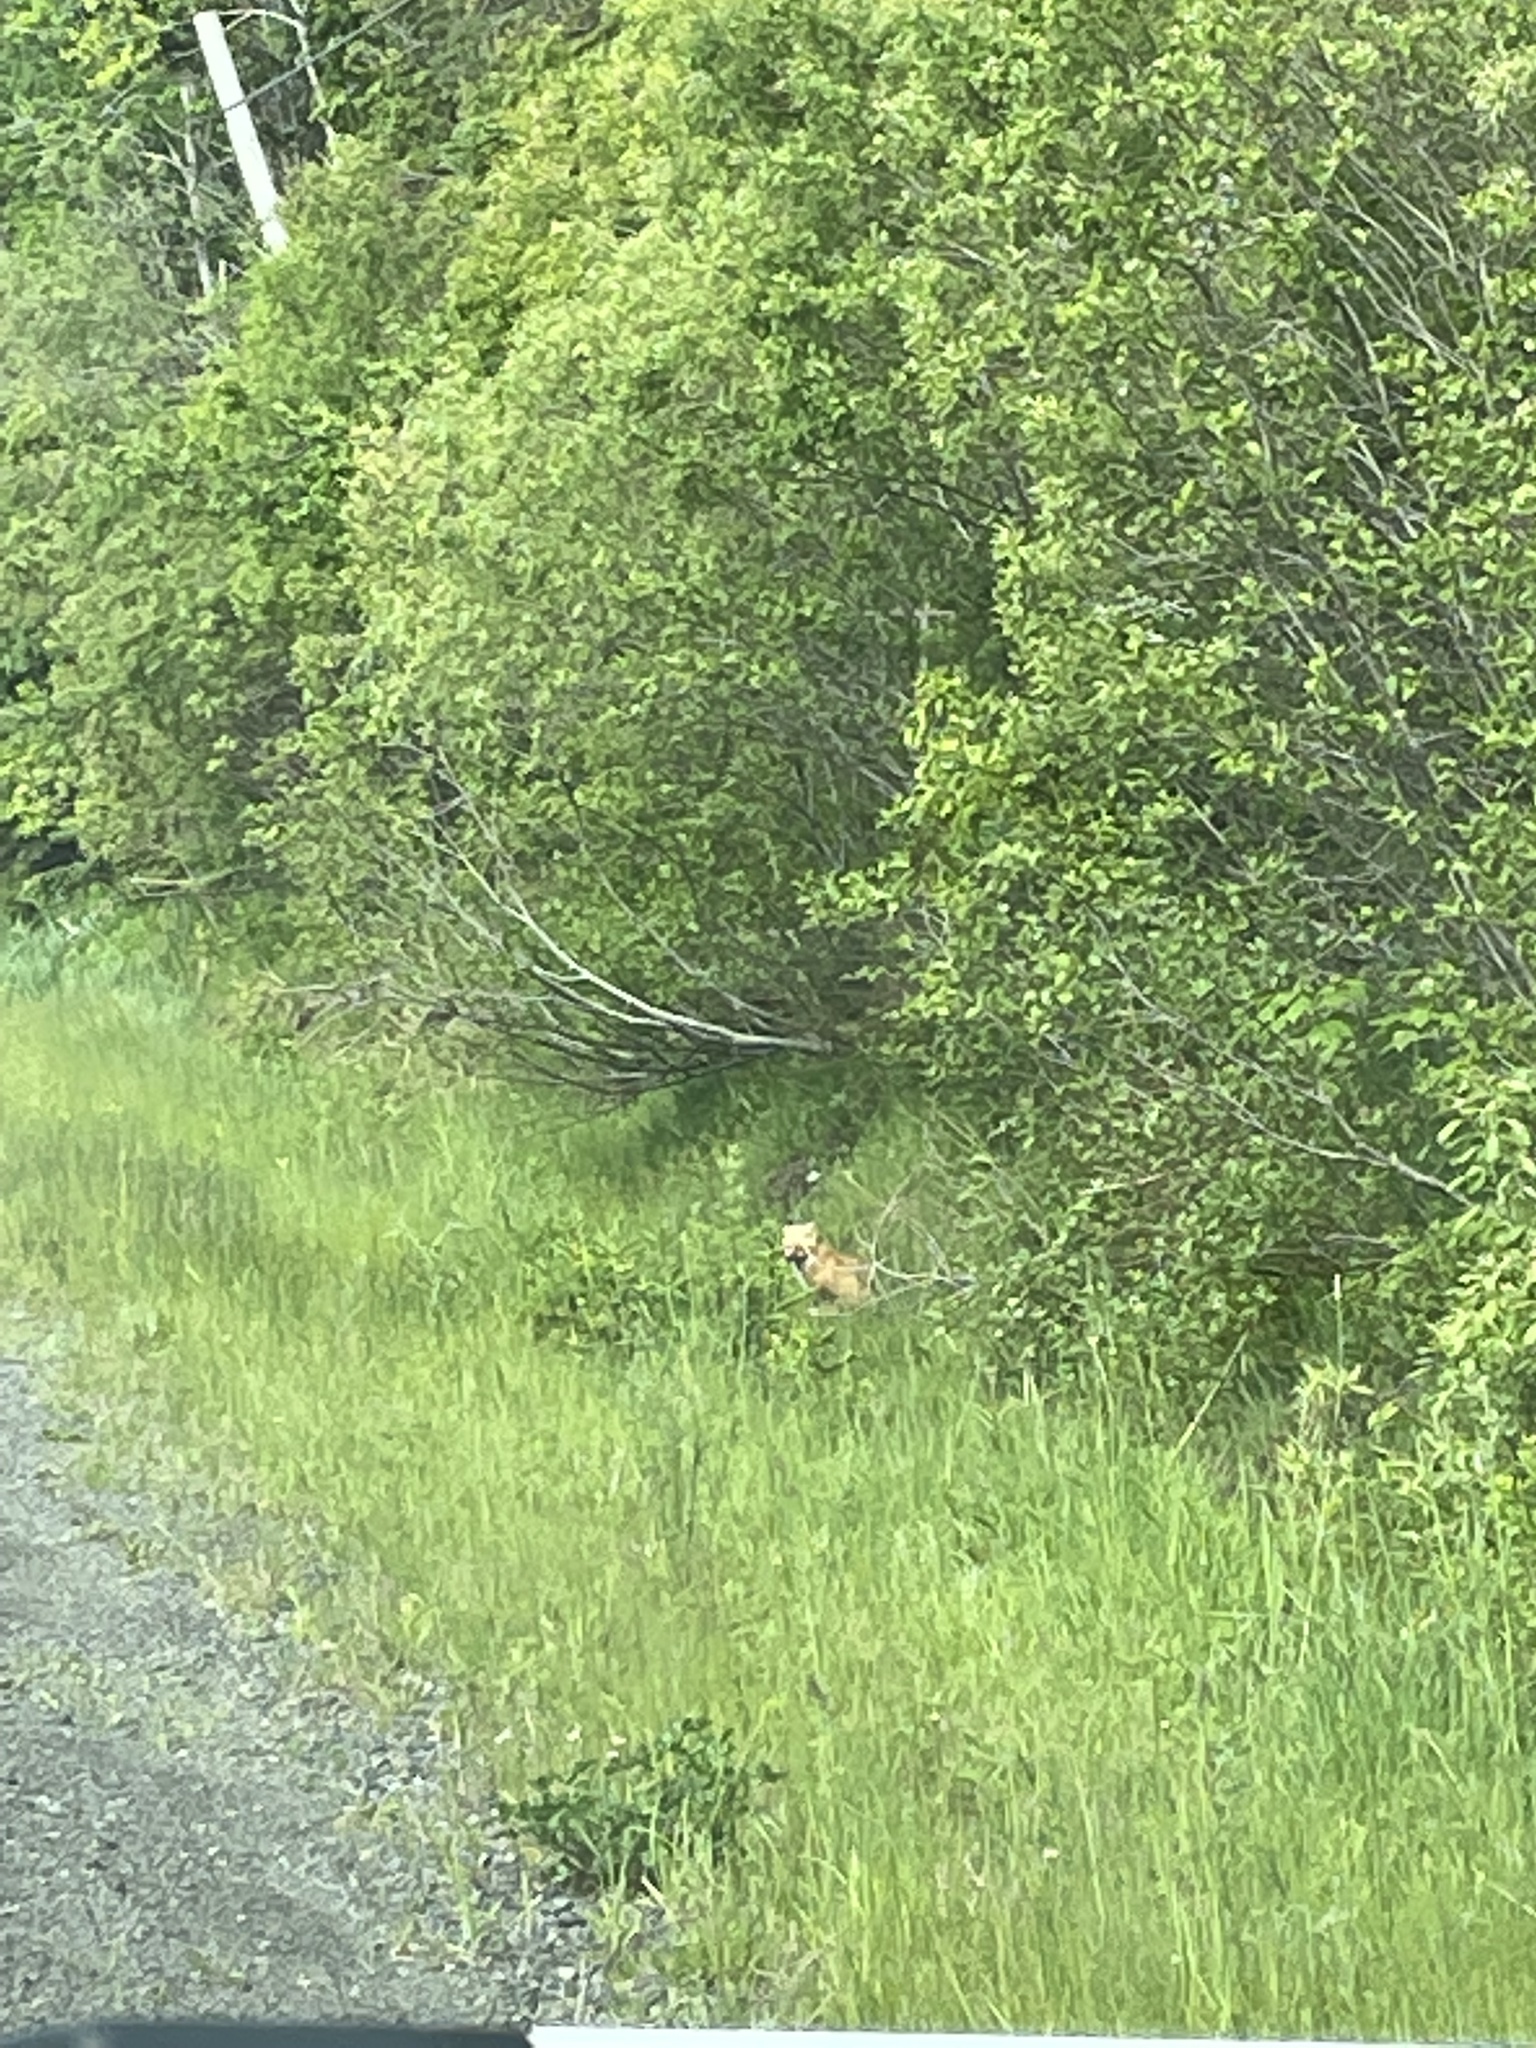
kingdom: Animalia
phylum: Chordata
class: Mammalia
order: Carnivora
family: Canidae
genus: Vulpes
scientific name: Vulpes vulpes
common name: Red fox
